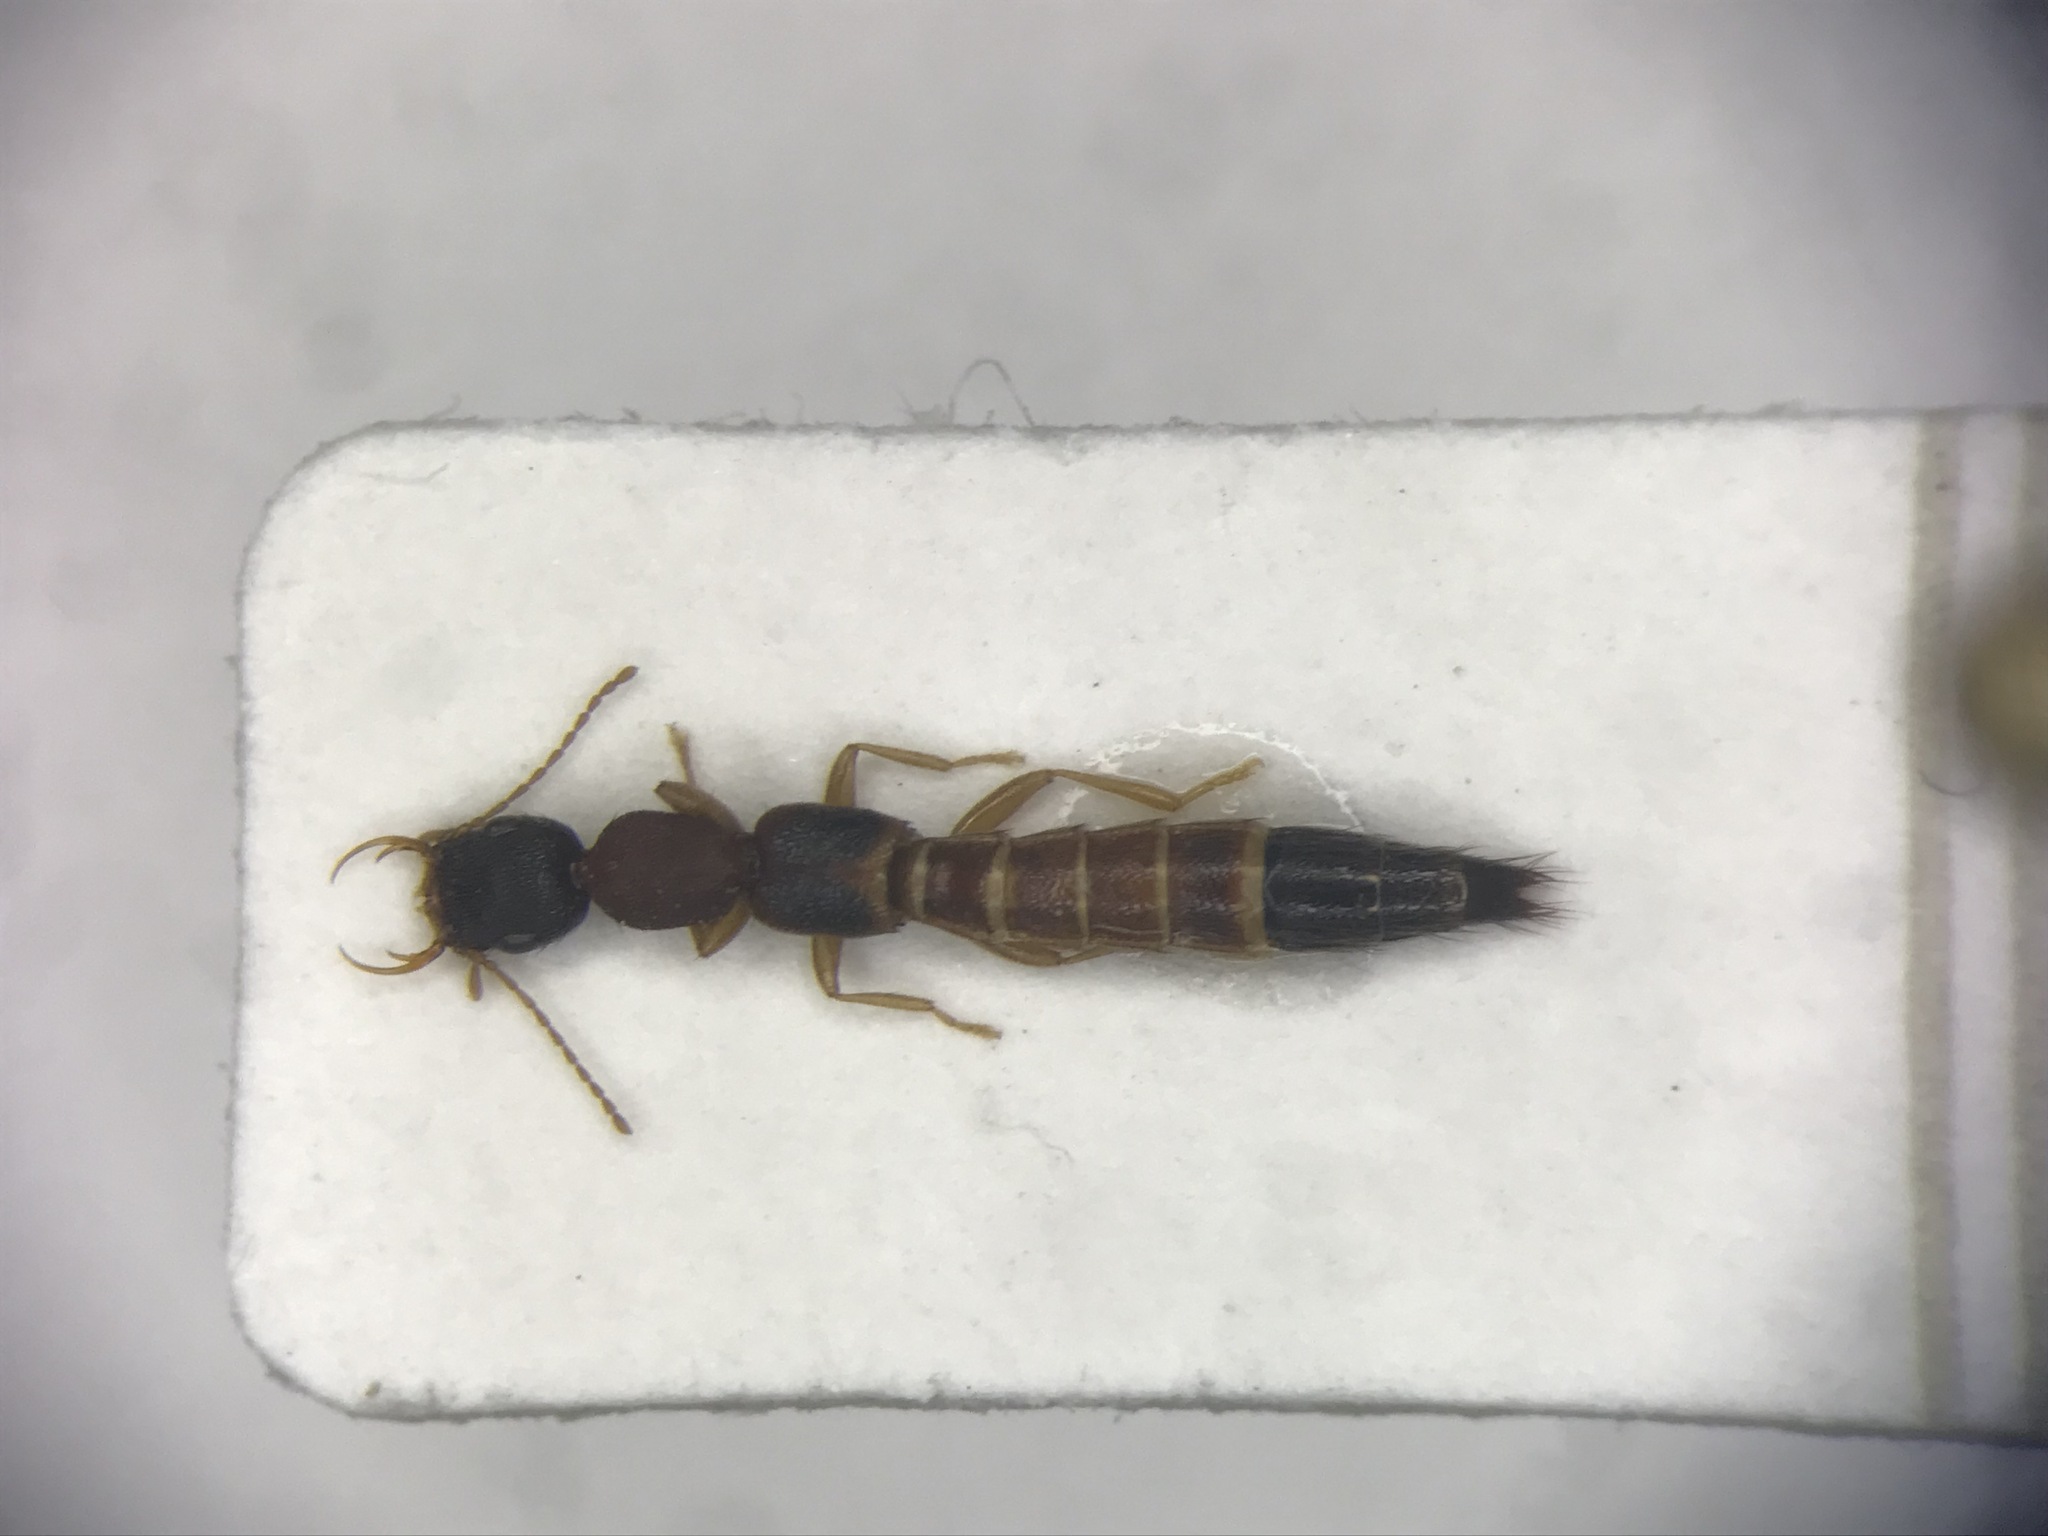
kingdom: Animalia
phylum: Arthropoda
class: Insecta
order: Coleoptera
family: Staphylinidae
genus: Astenus
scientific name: Astenus americanus
